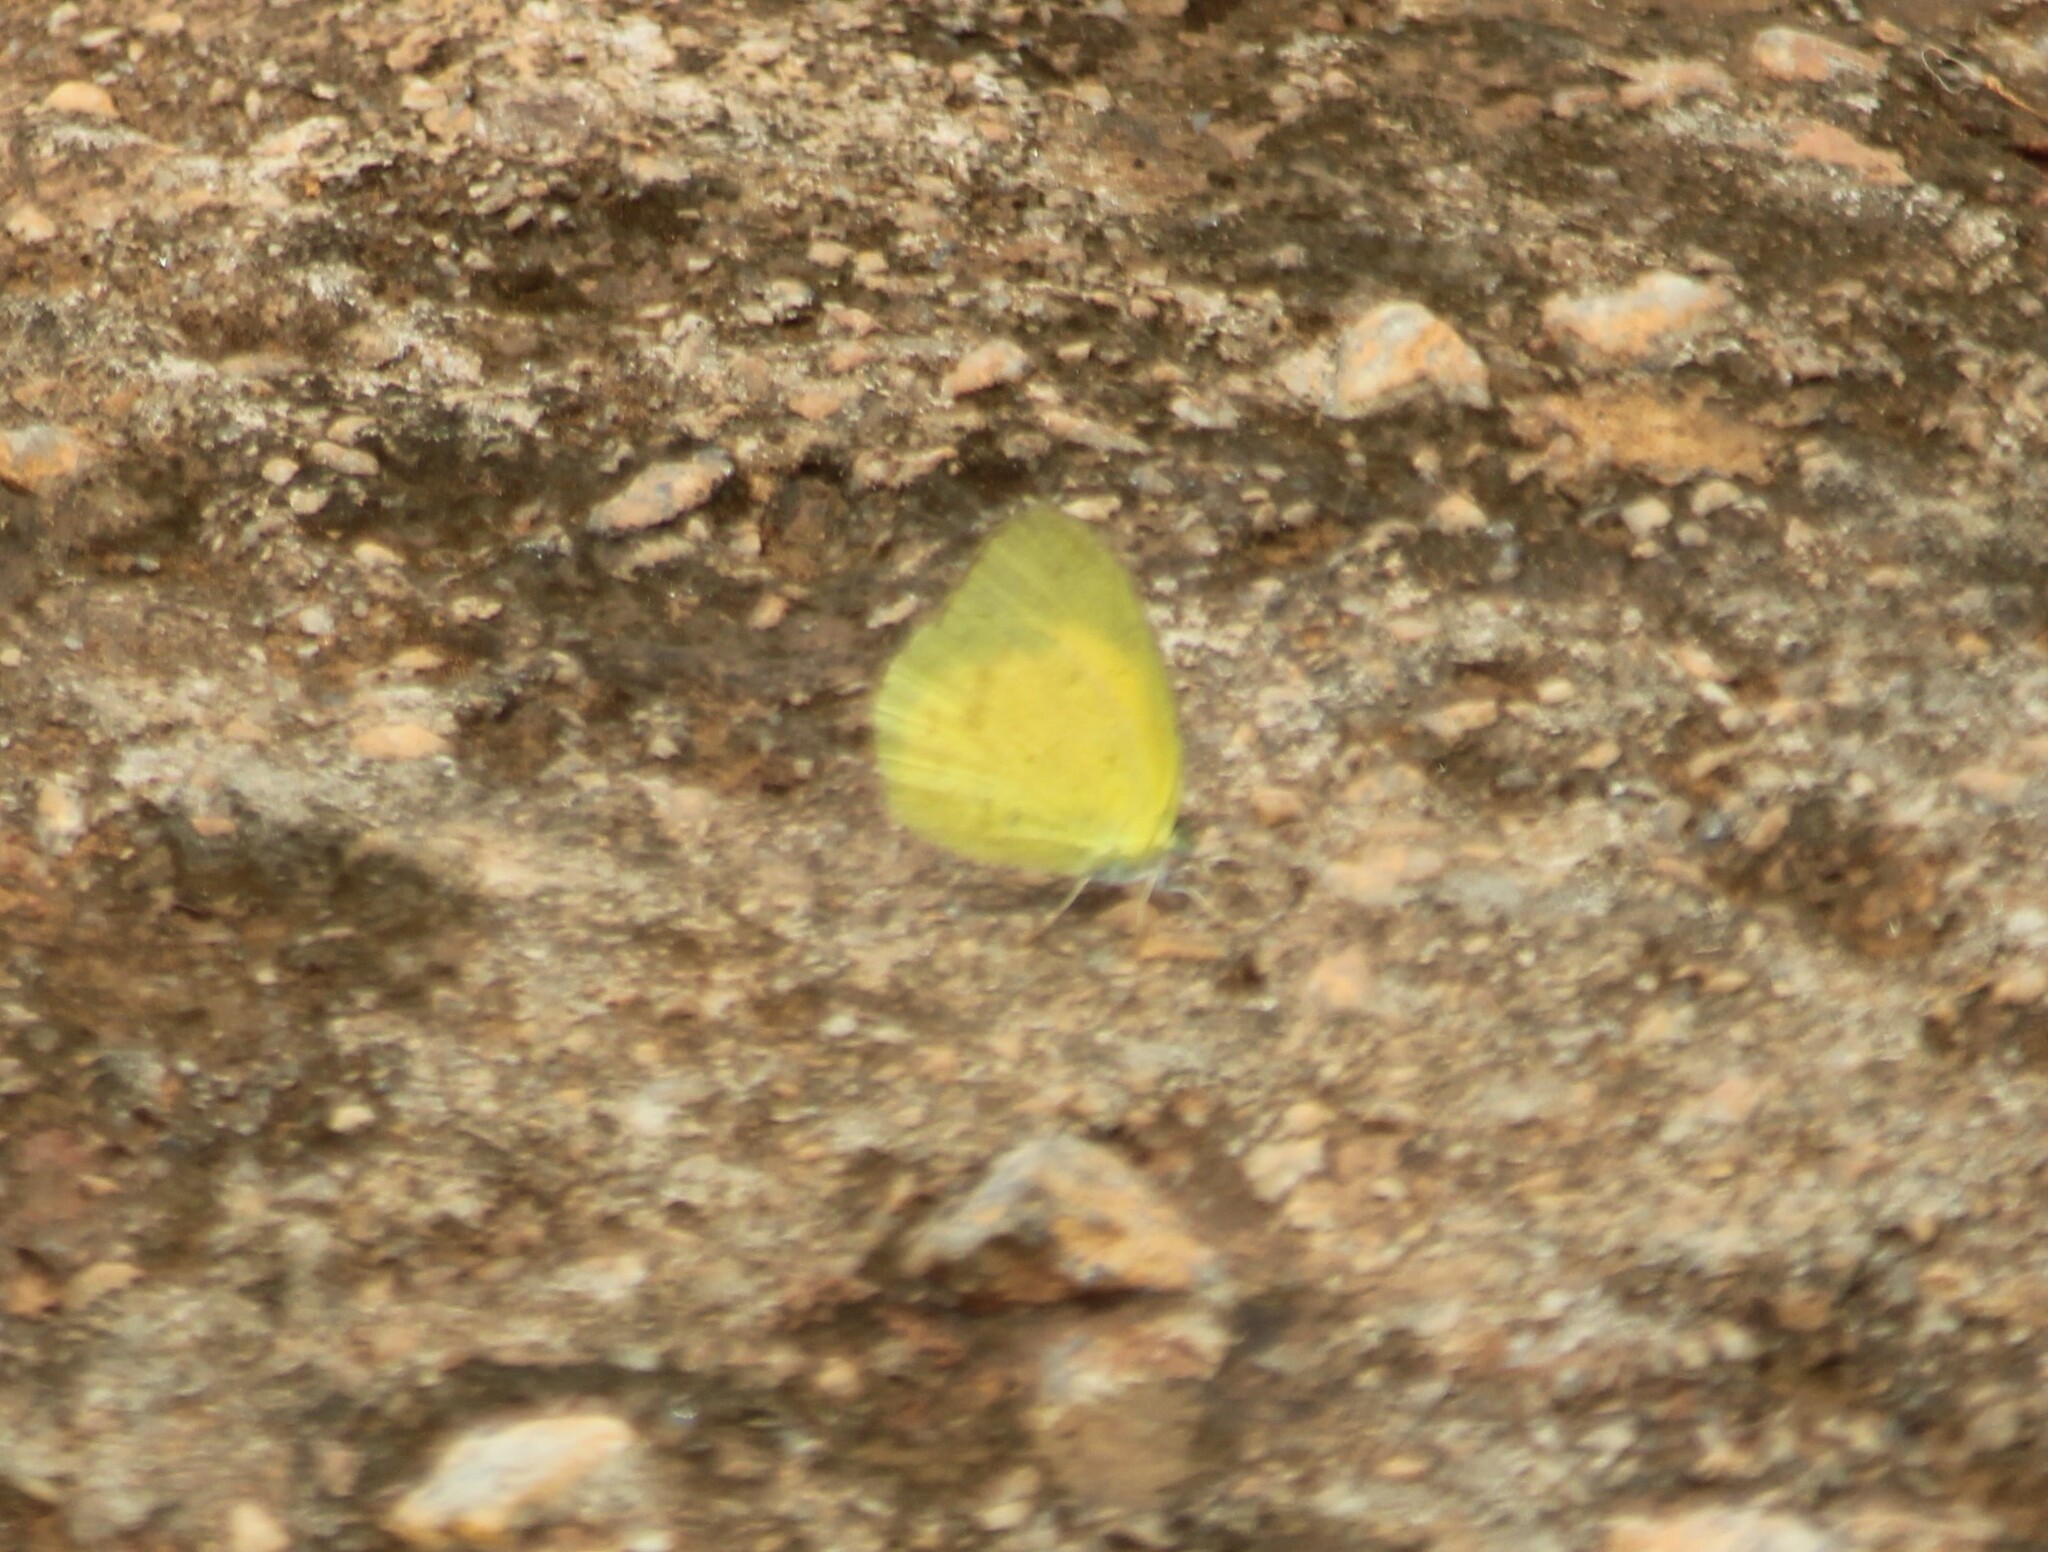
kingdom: Animalia
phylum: Arthropoda
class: Insecta
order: Lepidoptera
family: Pieridae
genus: Eurema
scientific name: Eurema brigitta
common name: Small grass yellow
